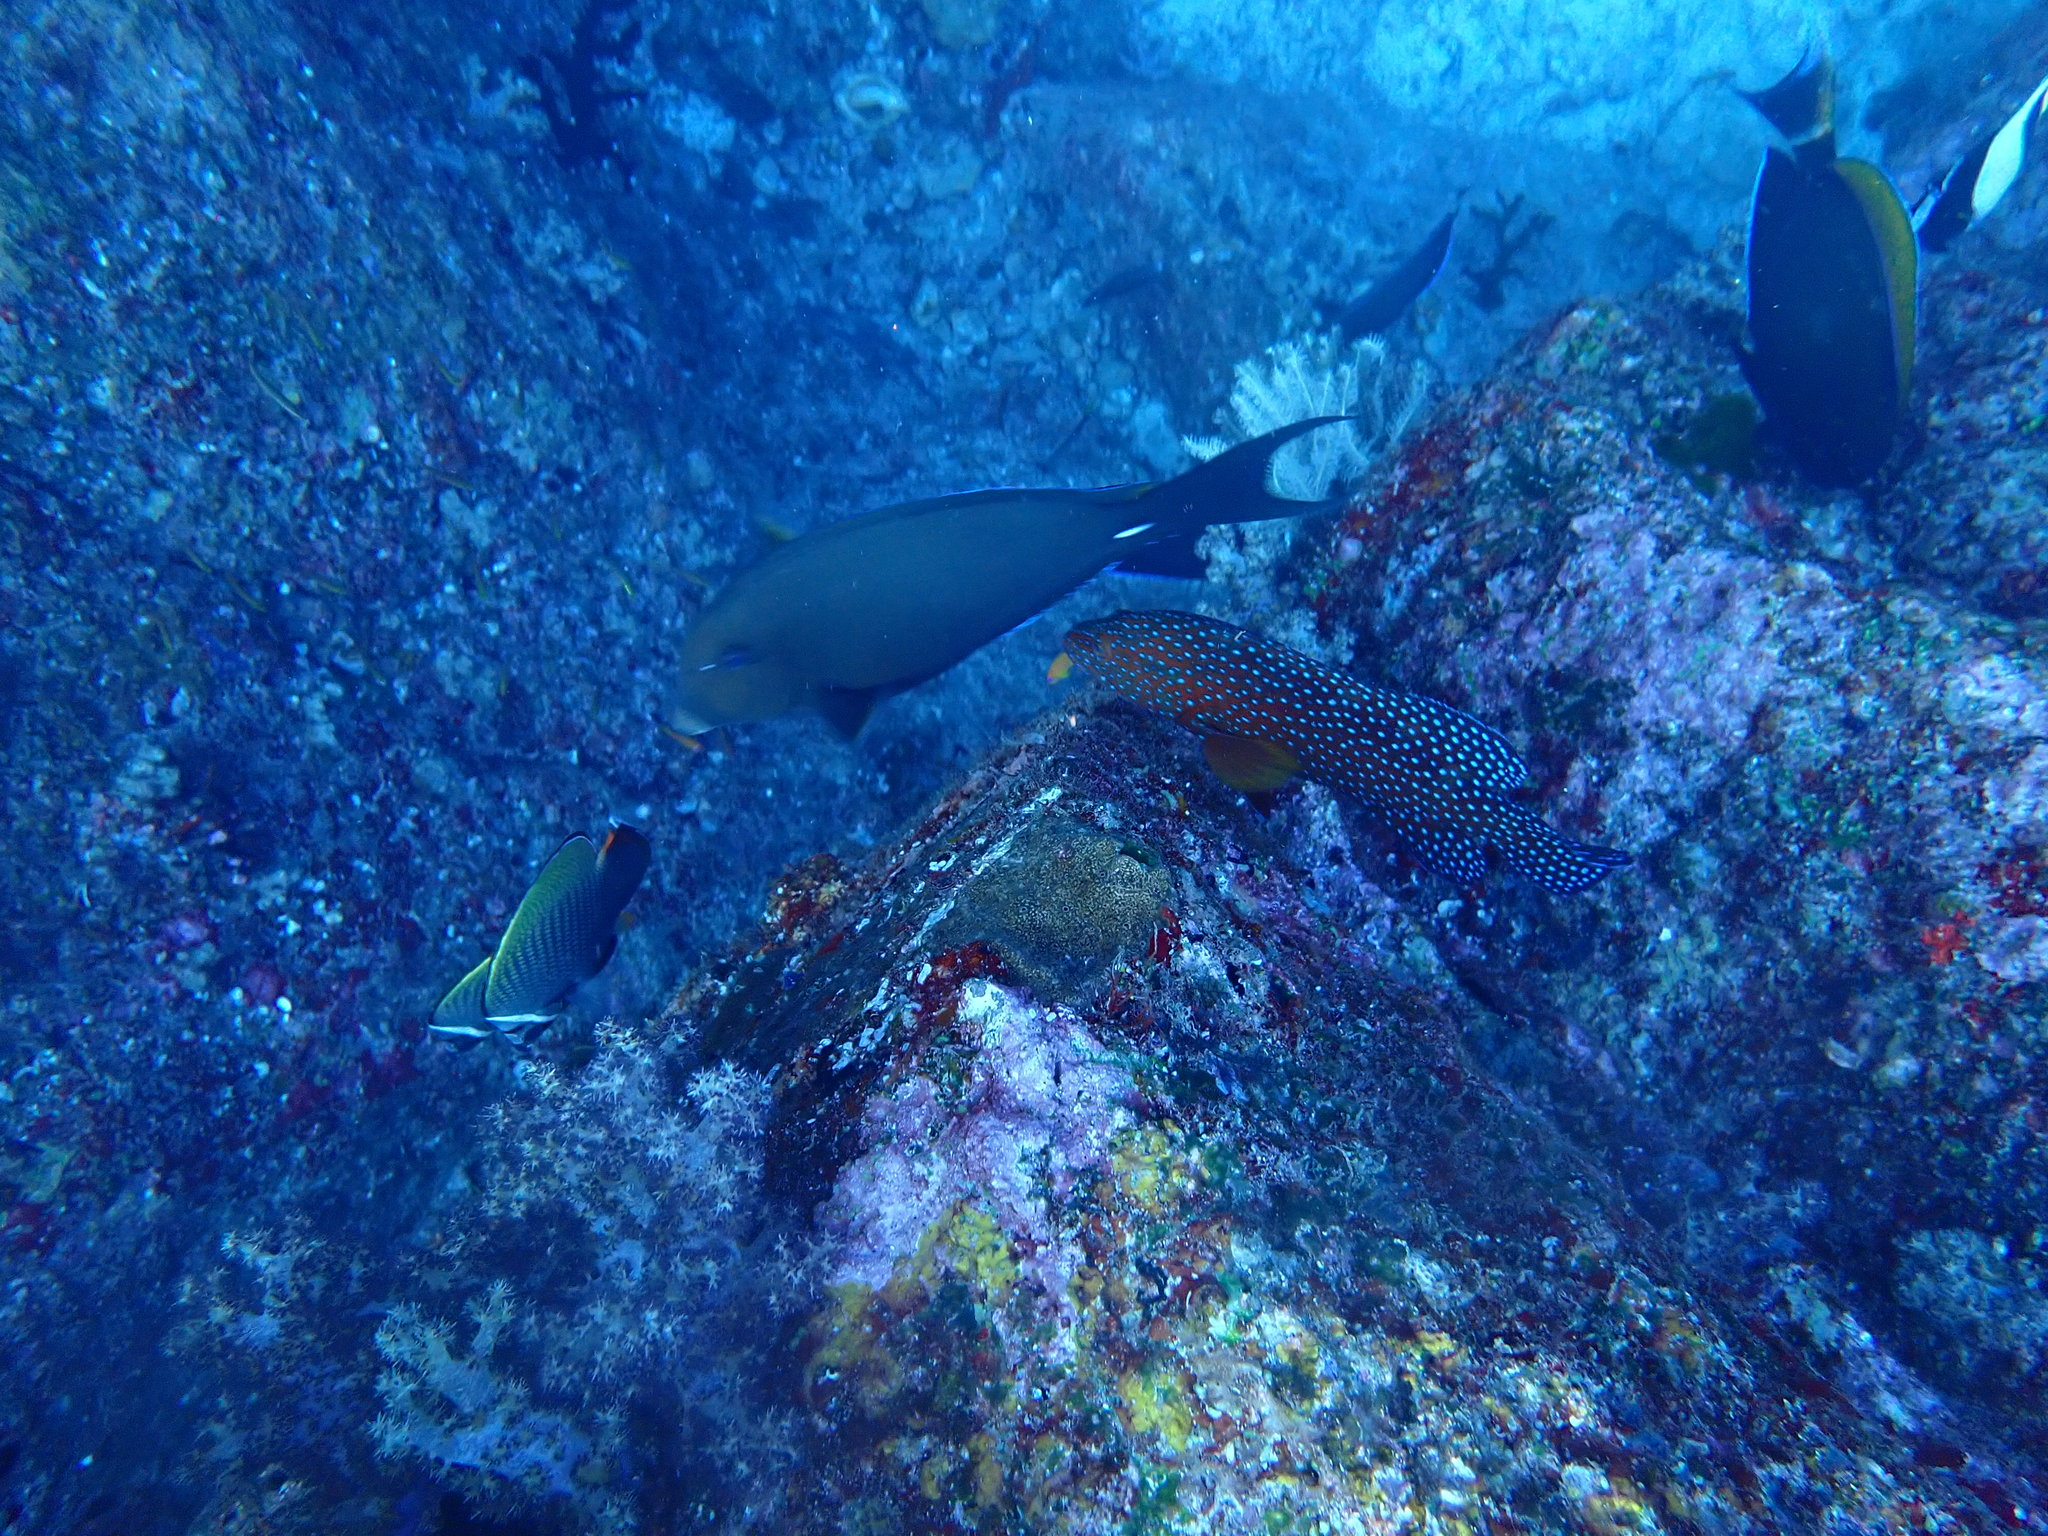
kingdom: Animalia
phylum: Chordata
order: Perciformes
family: Serranidae
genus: Cephalopholis
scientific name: Cephalopholis miniata
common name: Coral hind
